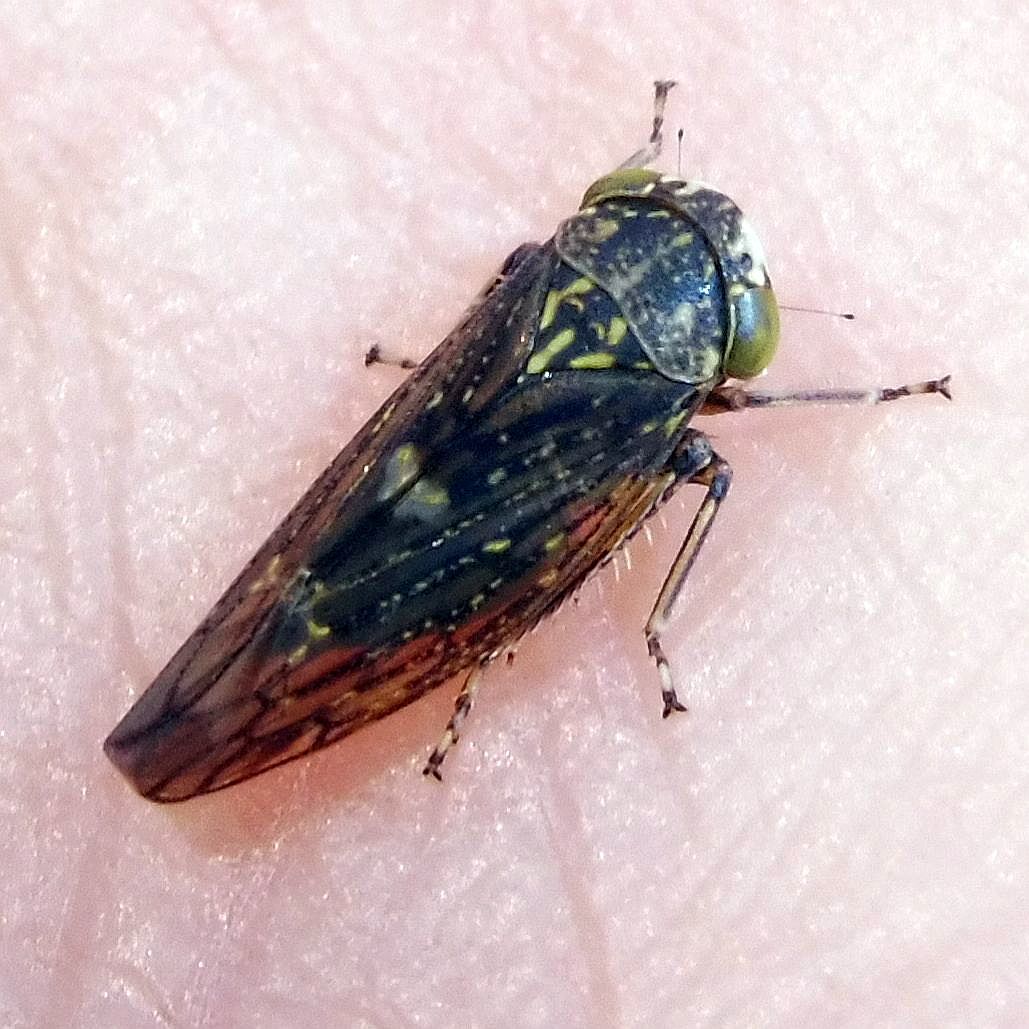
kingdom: Animalia
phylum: Arthropoda
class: Insecta
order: Hemiptera
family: Cicadellidae
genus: Acericerus
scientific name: Acericerus heydenii
